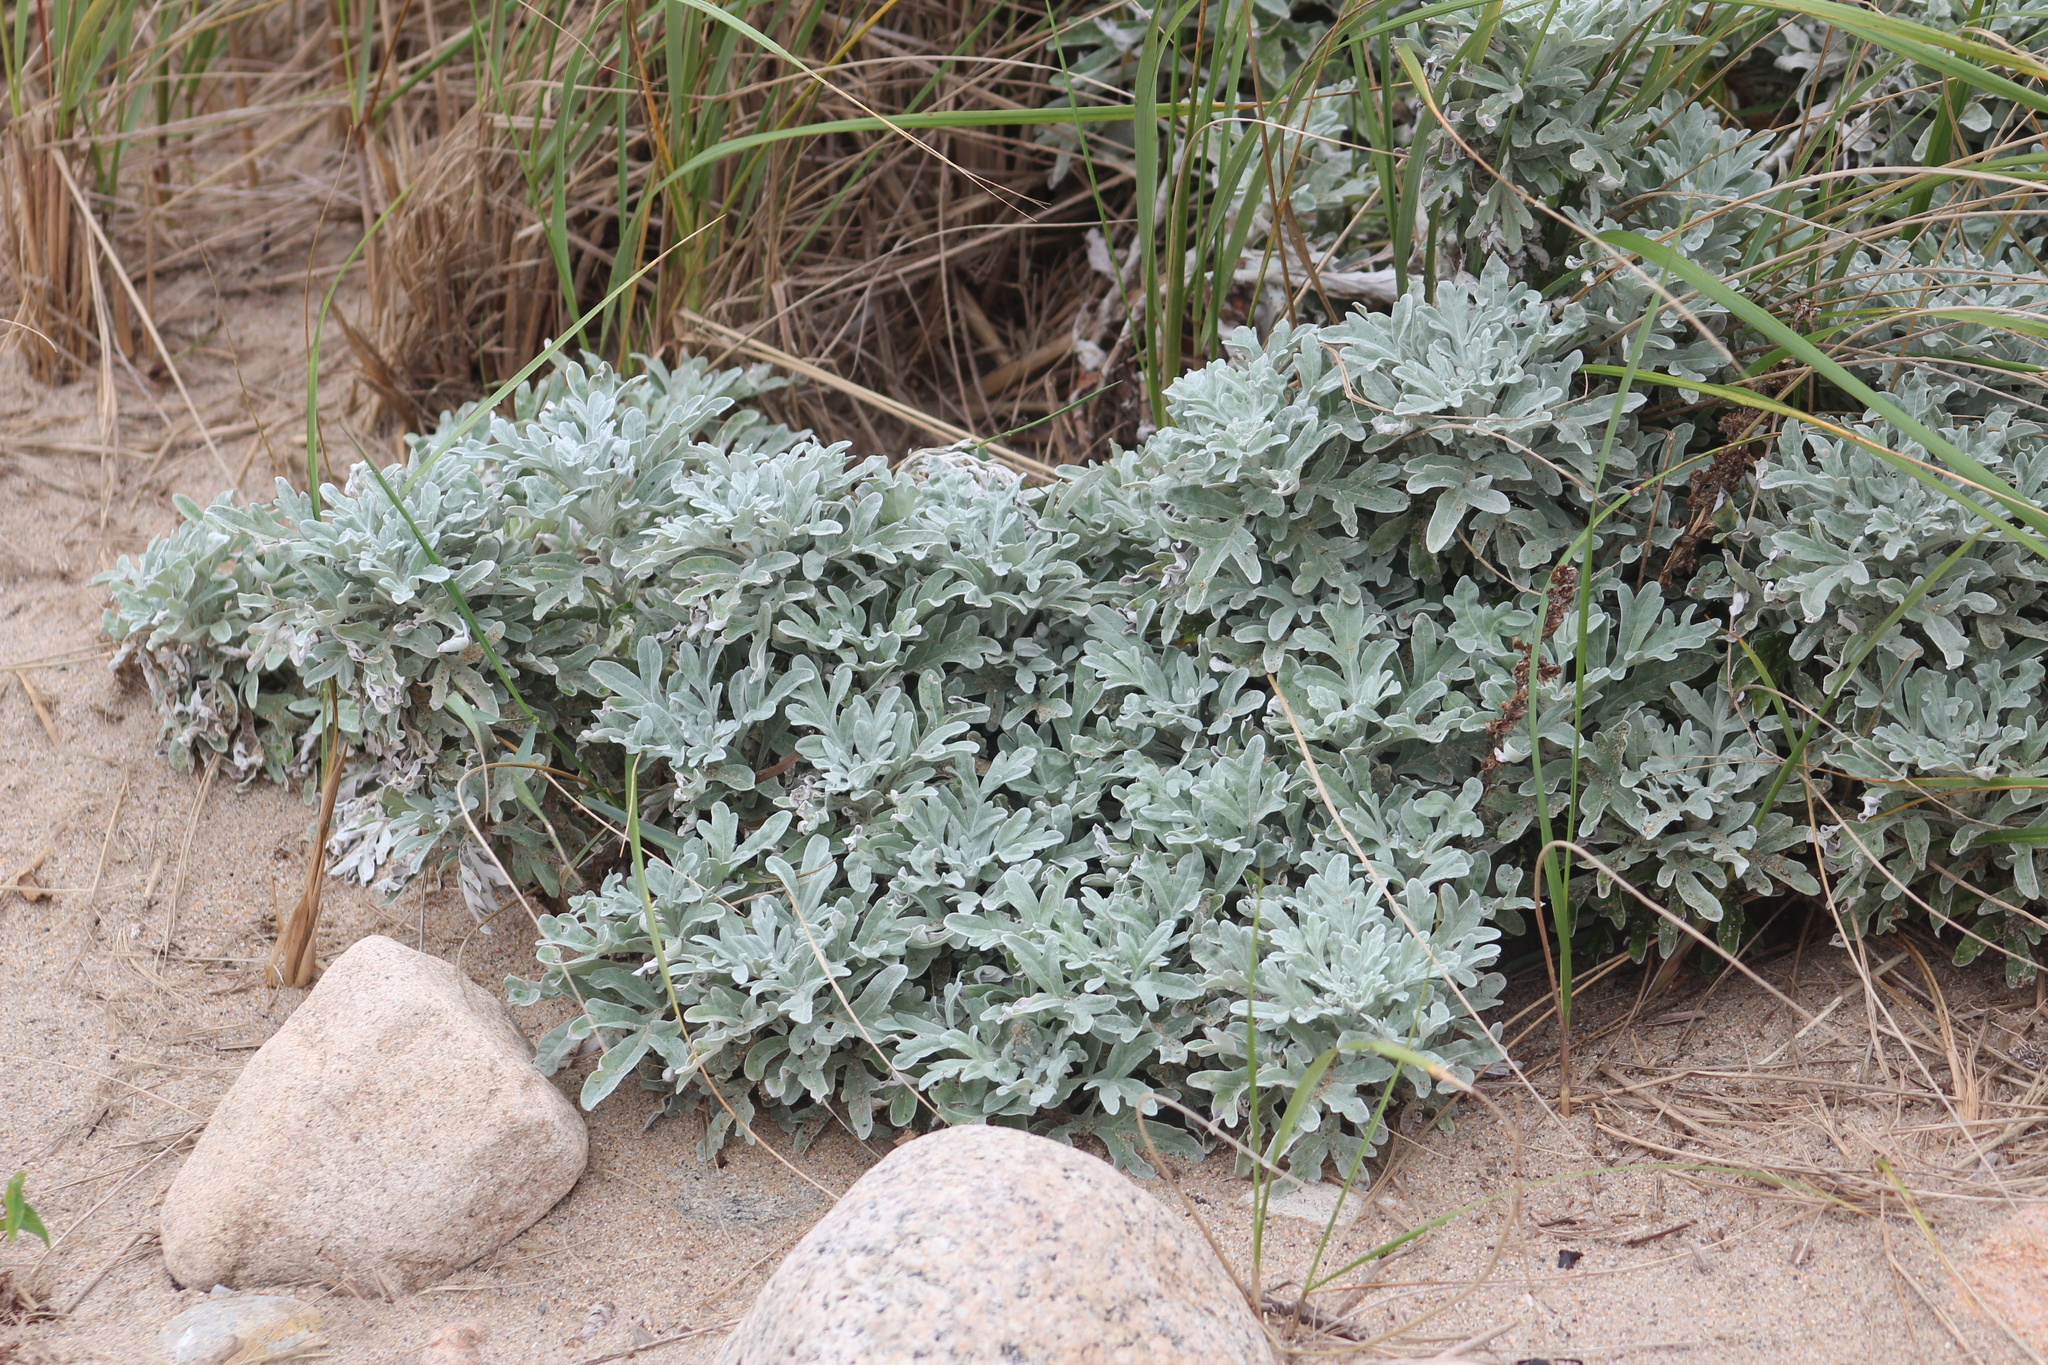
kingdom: Plantae
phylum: Tracheophyta
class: Magnoliopsida
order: Asterales
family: Asteraceae
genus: Artemisia
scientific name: Artemisia stelleriana
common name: Beach wormwood
